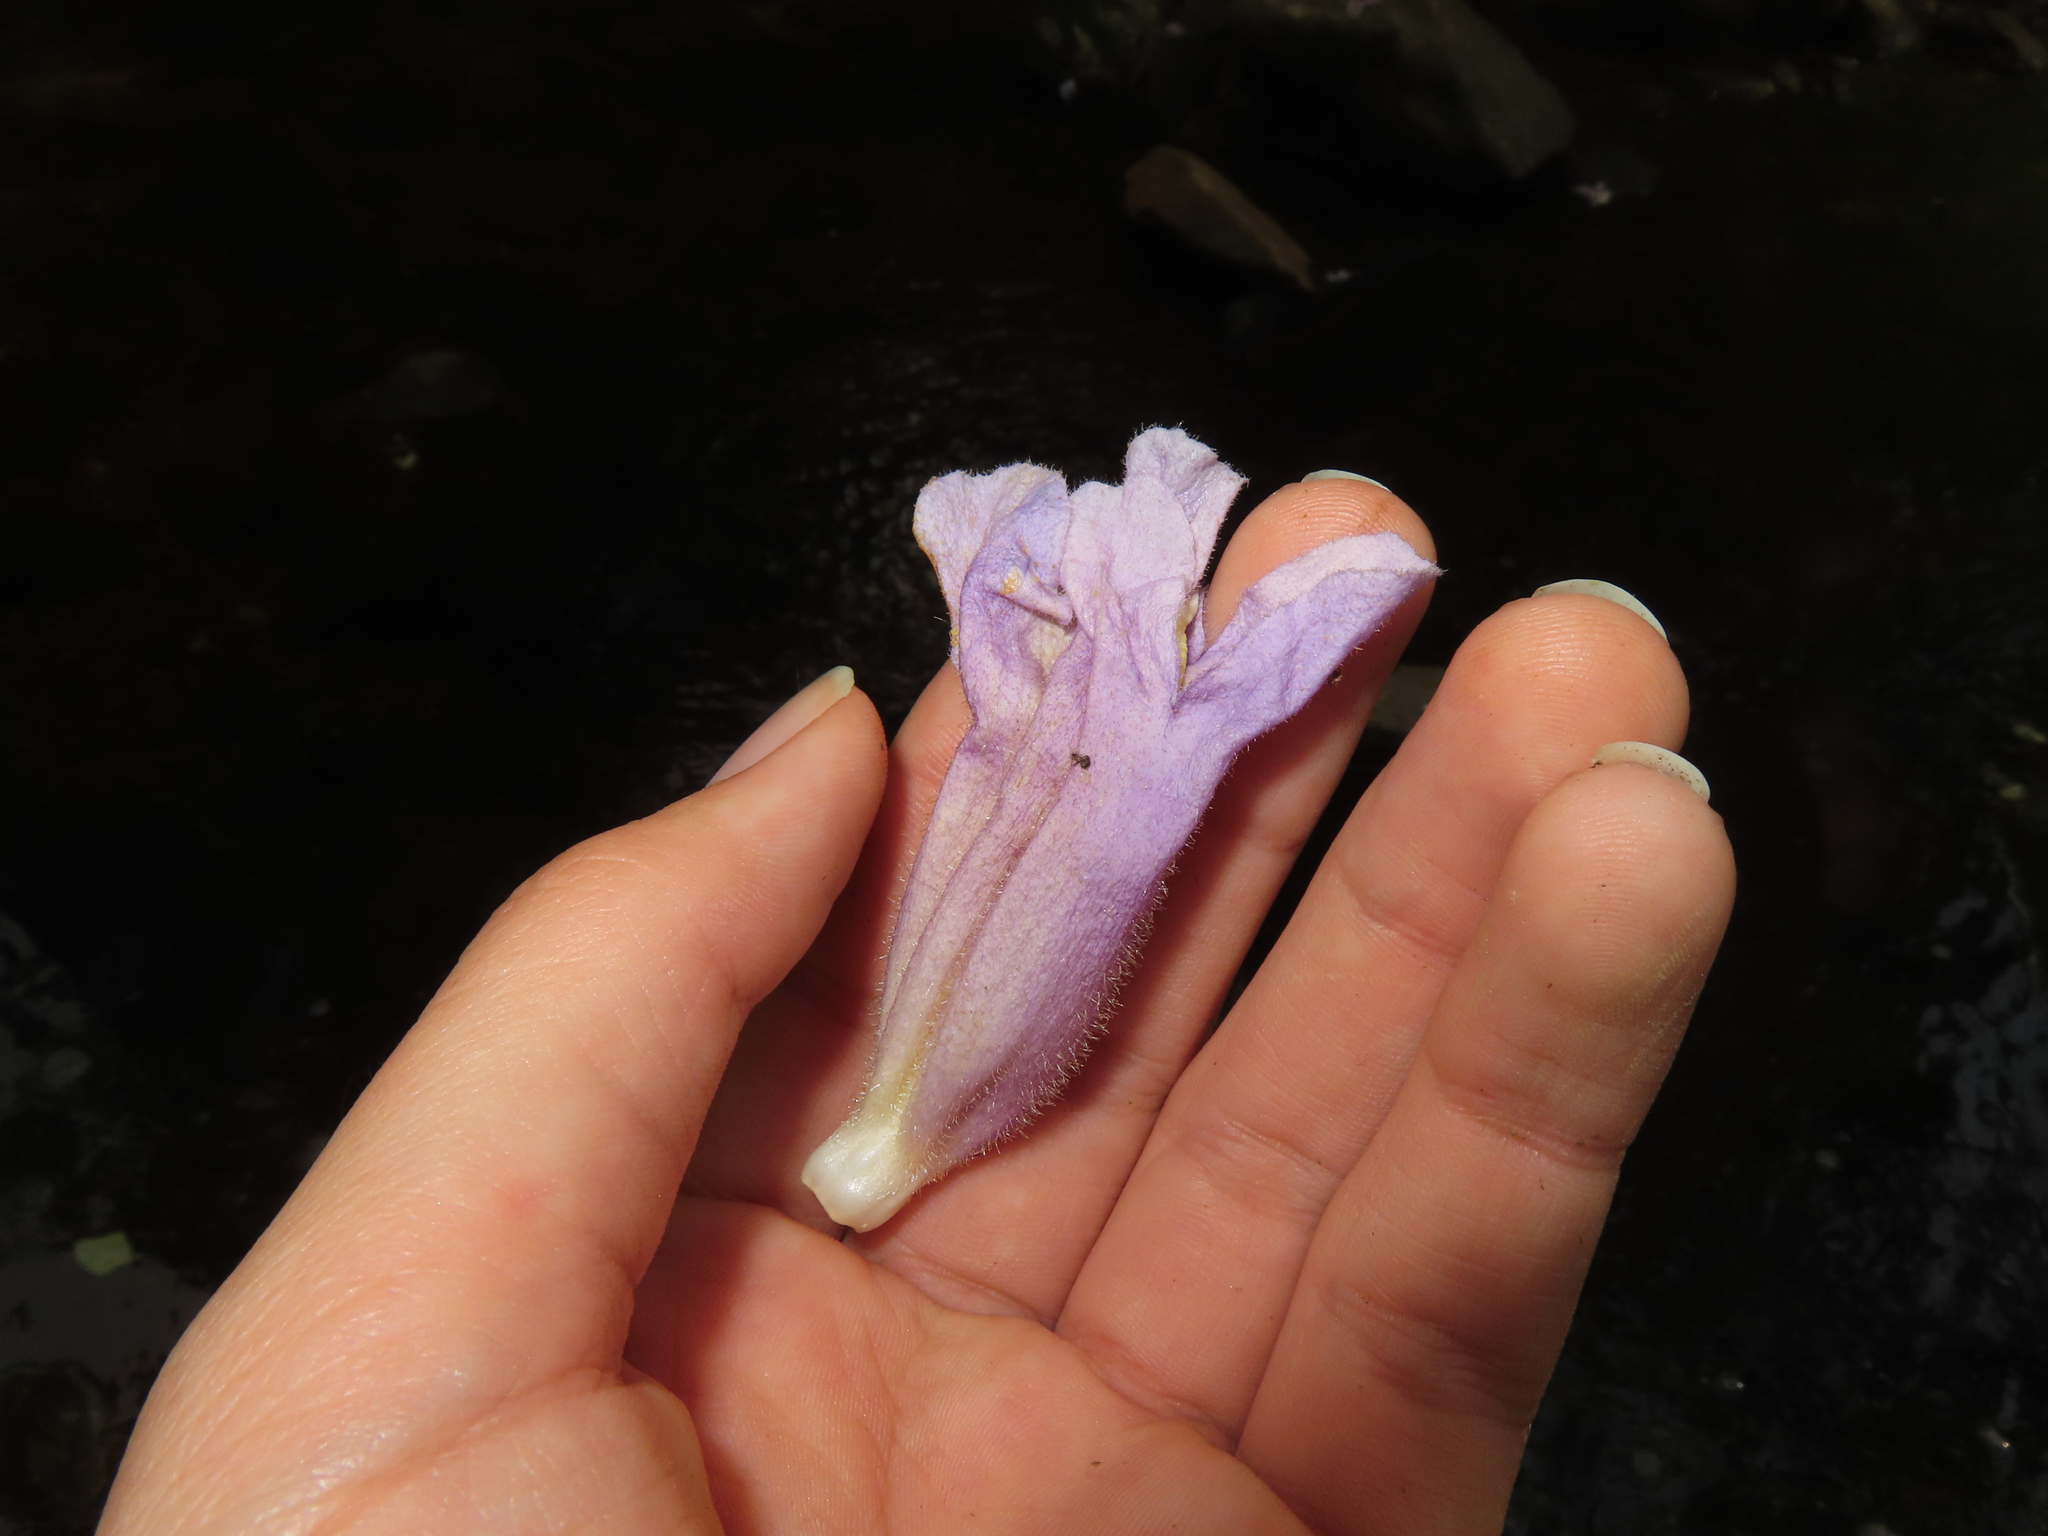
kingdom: Plantae
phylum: Tracheophyta
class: Magnoliopsida
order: Lamiales
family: Paulowniaceae
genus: Paulownia
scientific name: Paulownia tomentosa
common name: Foxglove-tree
